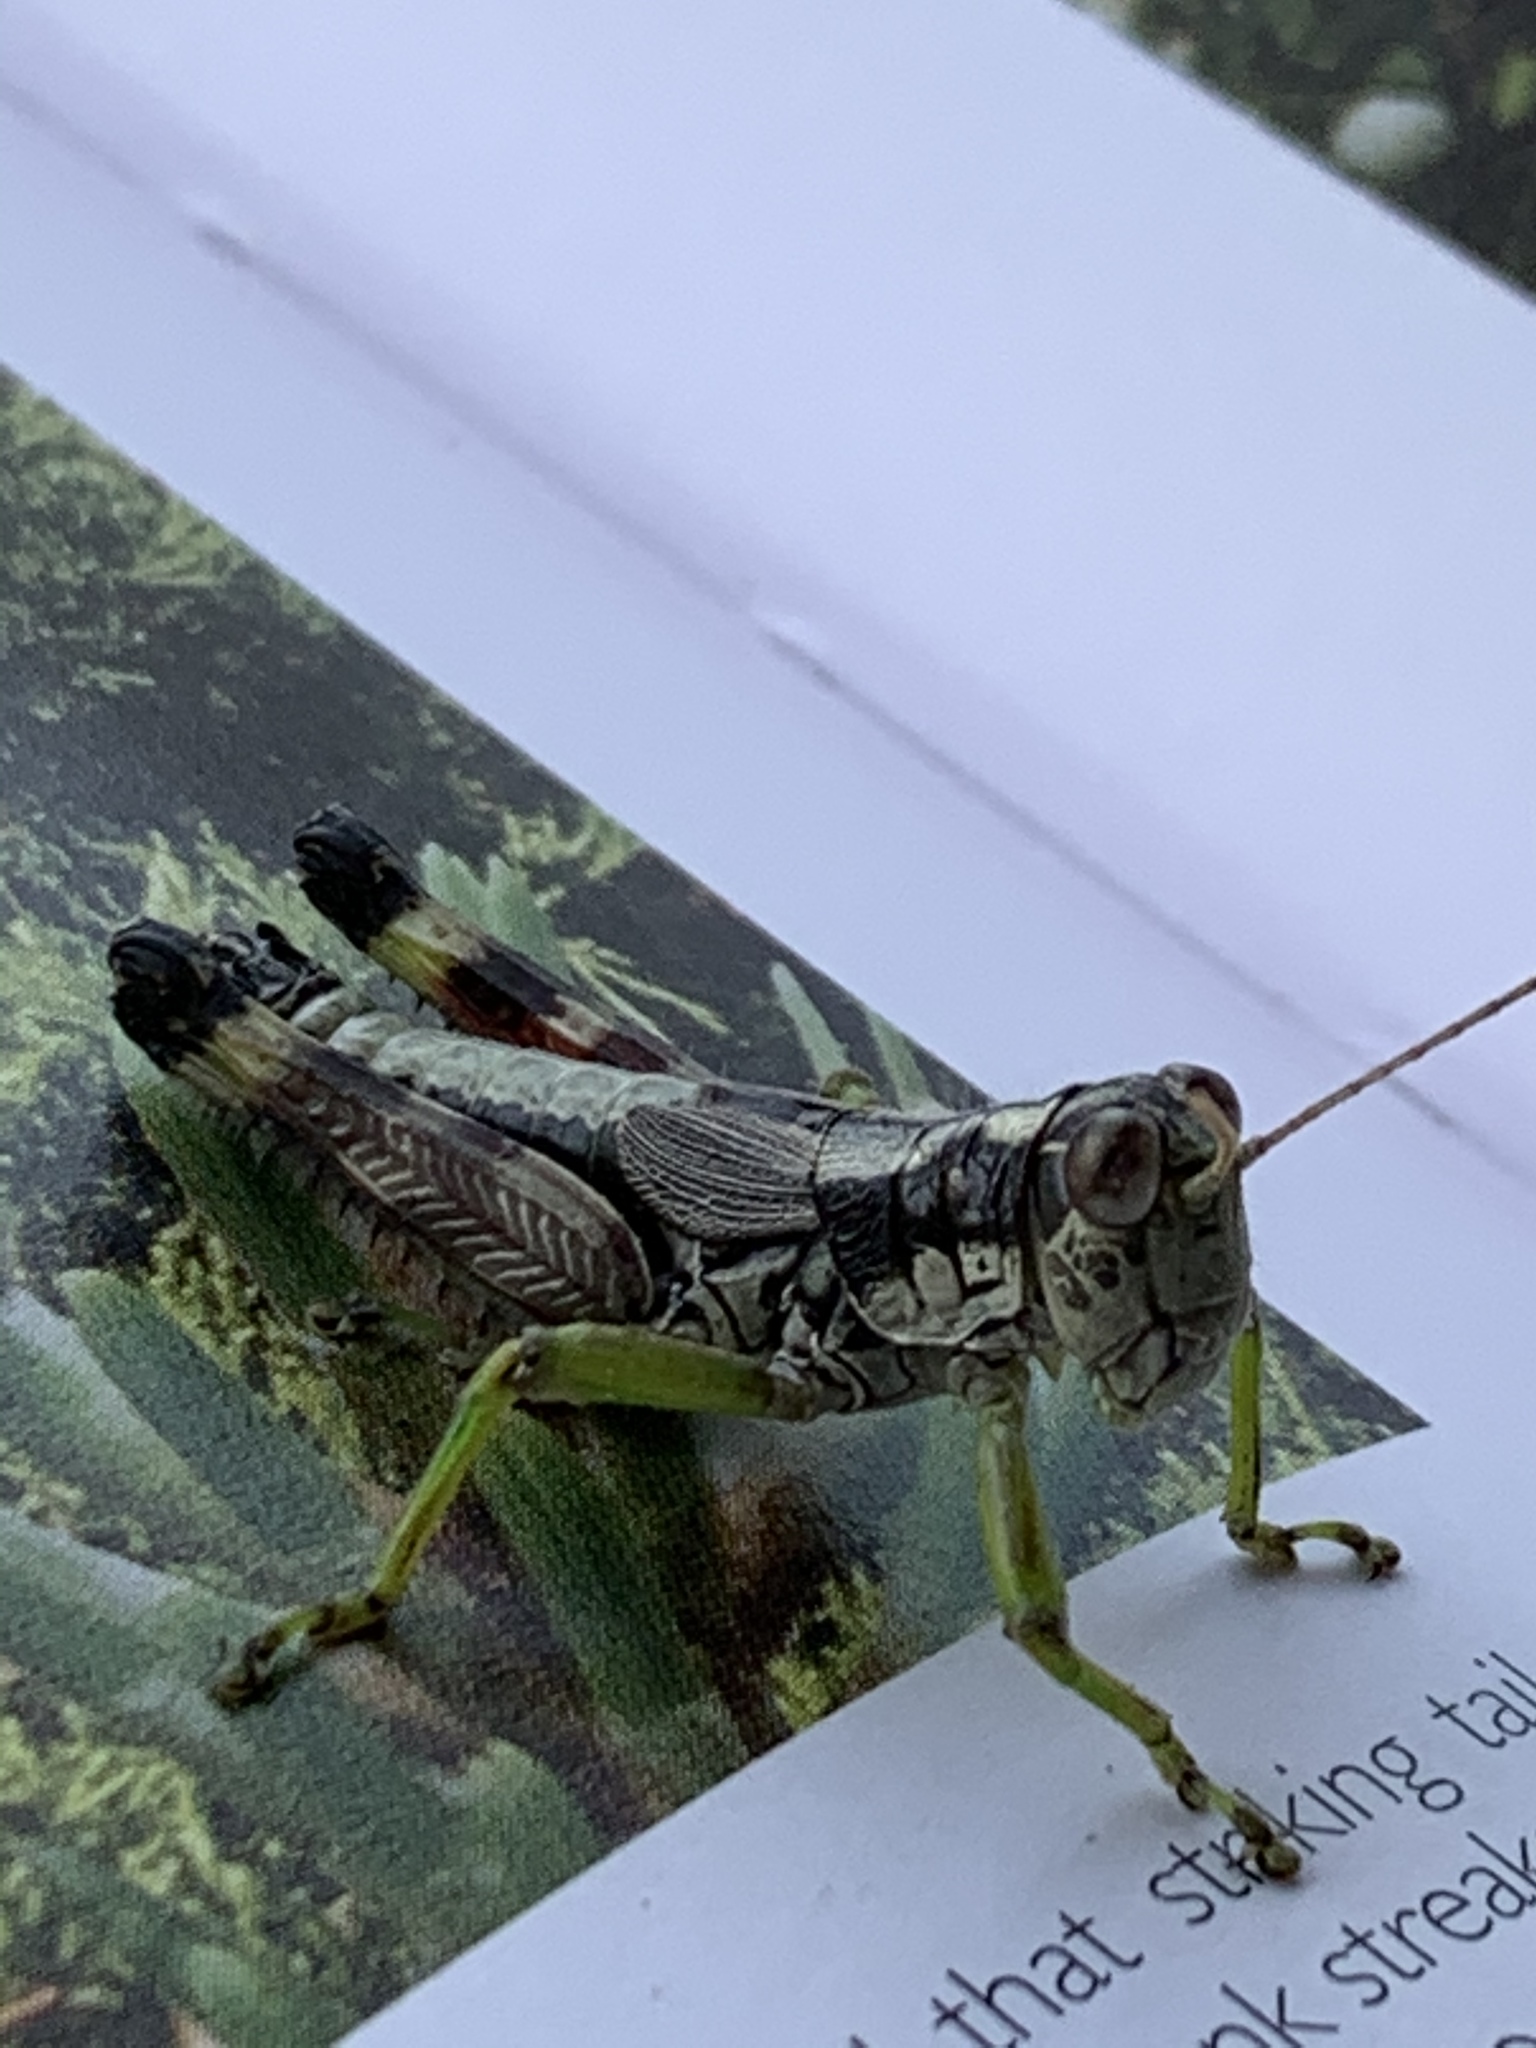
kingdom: Animalia
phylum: Arthropoda
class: Insecta
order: Orthoptera
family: Acrididae
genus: Dendrotettix
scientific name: Dendrotettix quercus
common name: Post oak grasshopper
